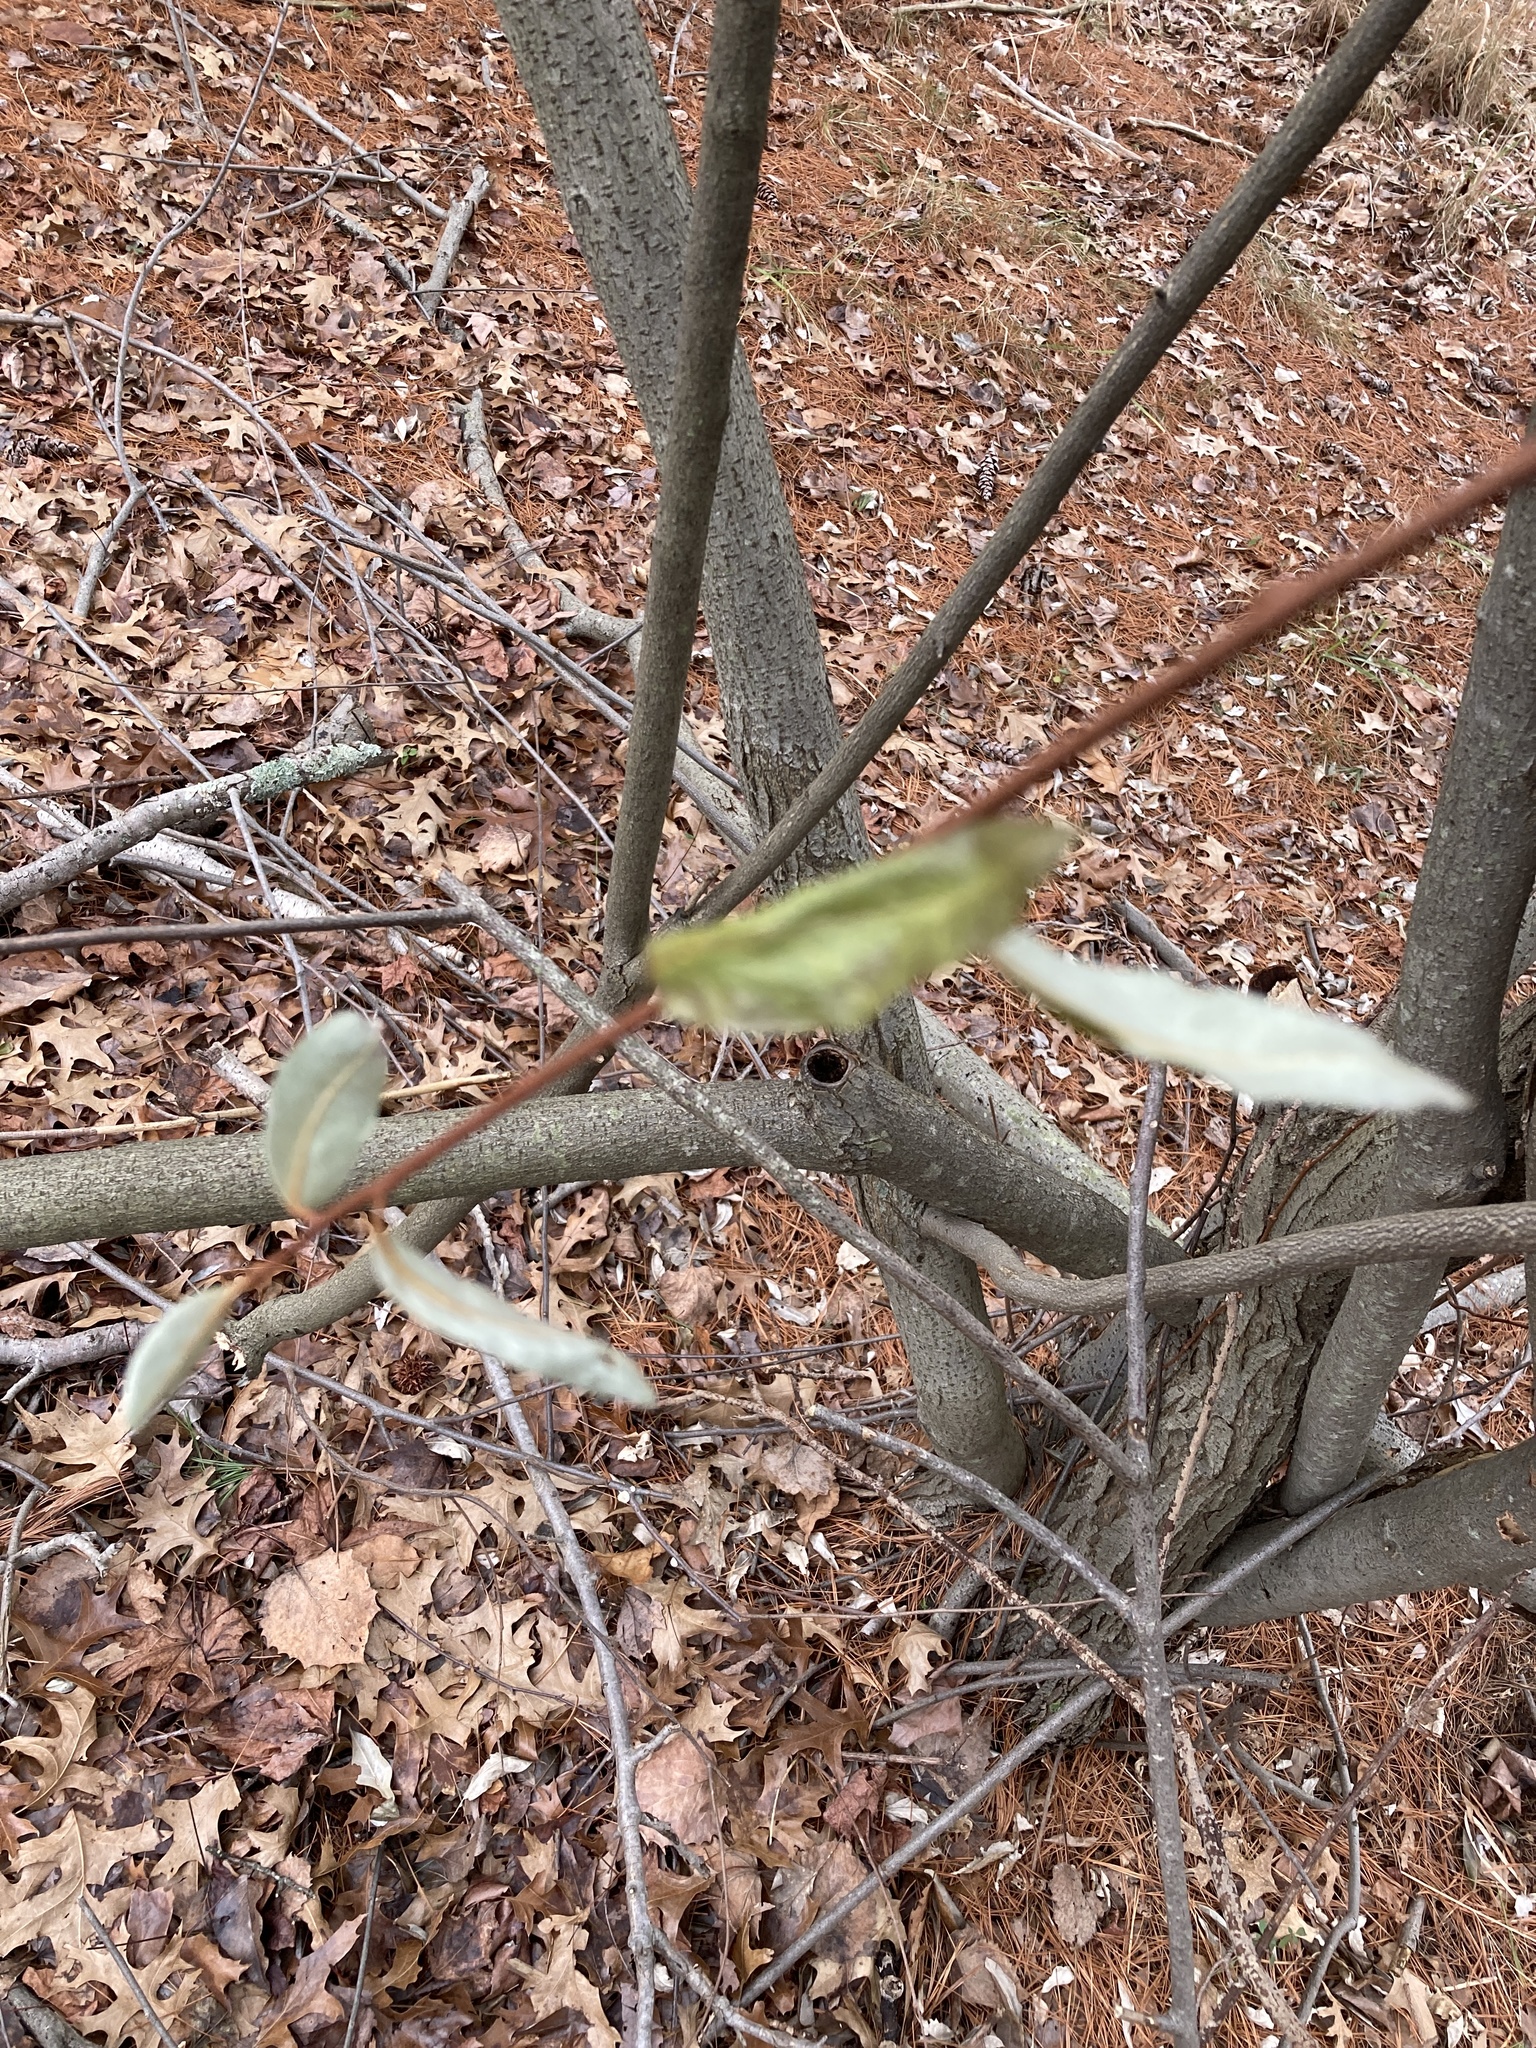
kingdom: Plantae
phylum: Tracheophyta
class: Magnoliopsida
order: Rosales
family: Elaeagnaceae
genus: Elaeagnus
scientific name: Elaeagnus umbellata
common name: Autumn olive
